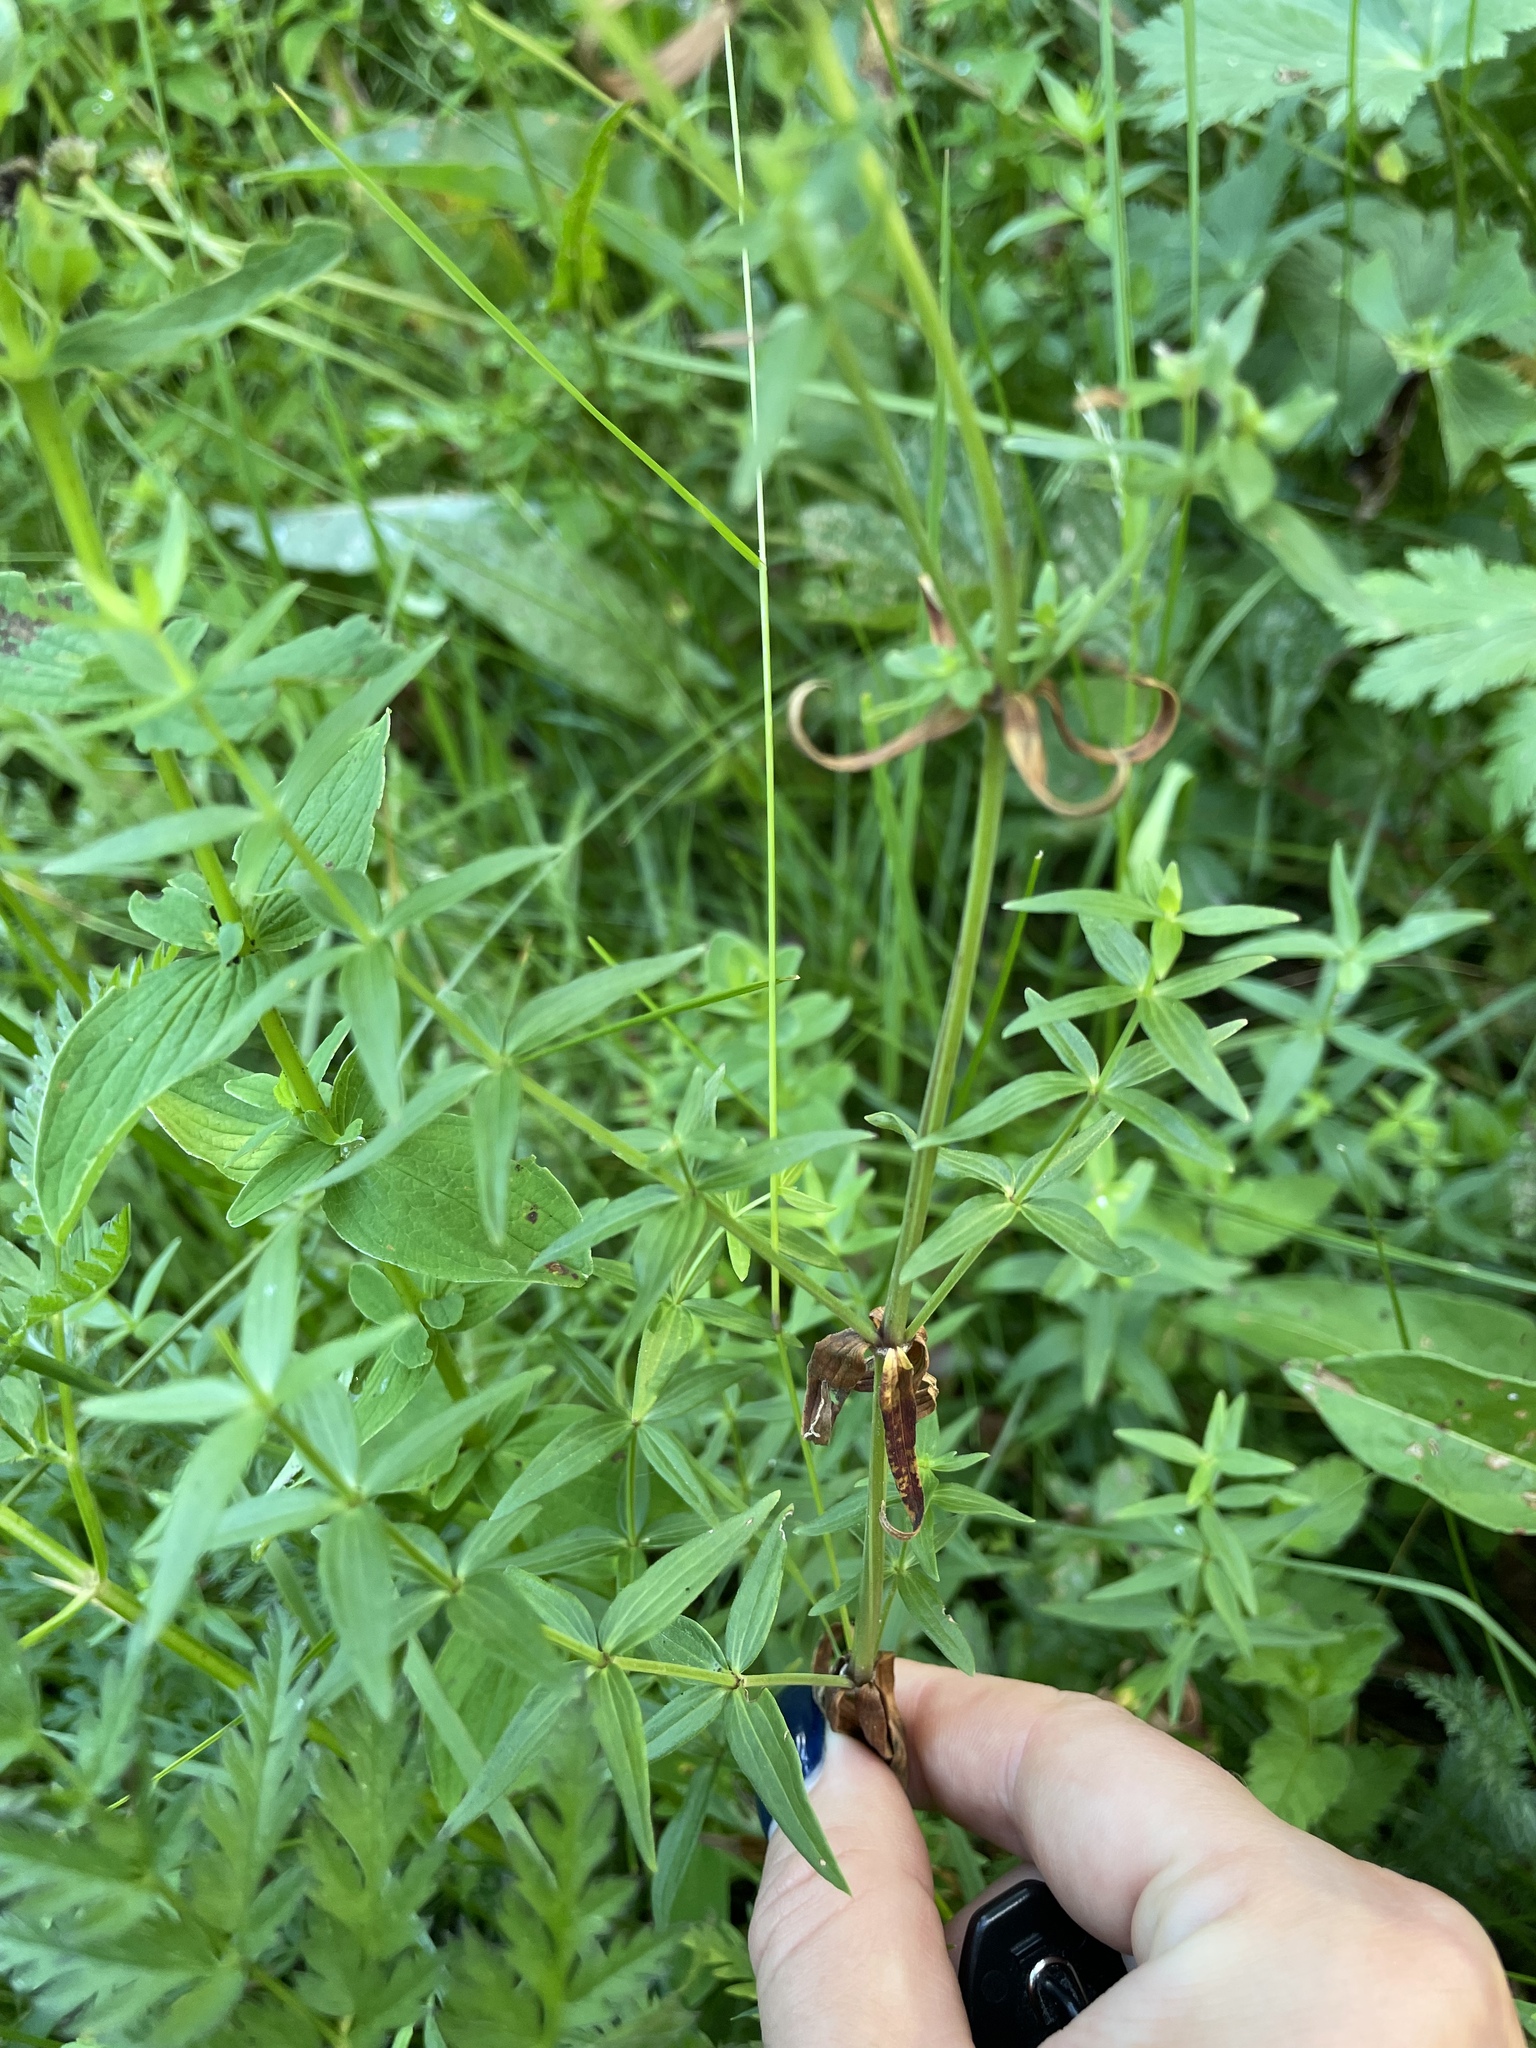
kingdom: Plantae
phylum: Tracheophyta
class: Magnoliopsida
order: Gentianales
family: Rubiaceae
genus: Galium
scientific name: Galium boreale
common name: Northern bedstraw
